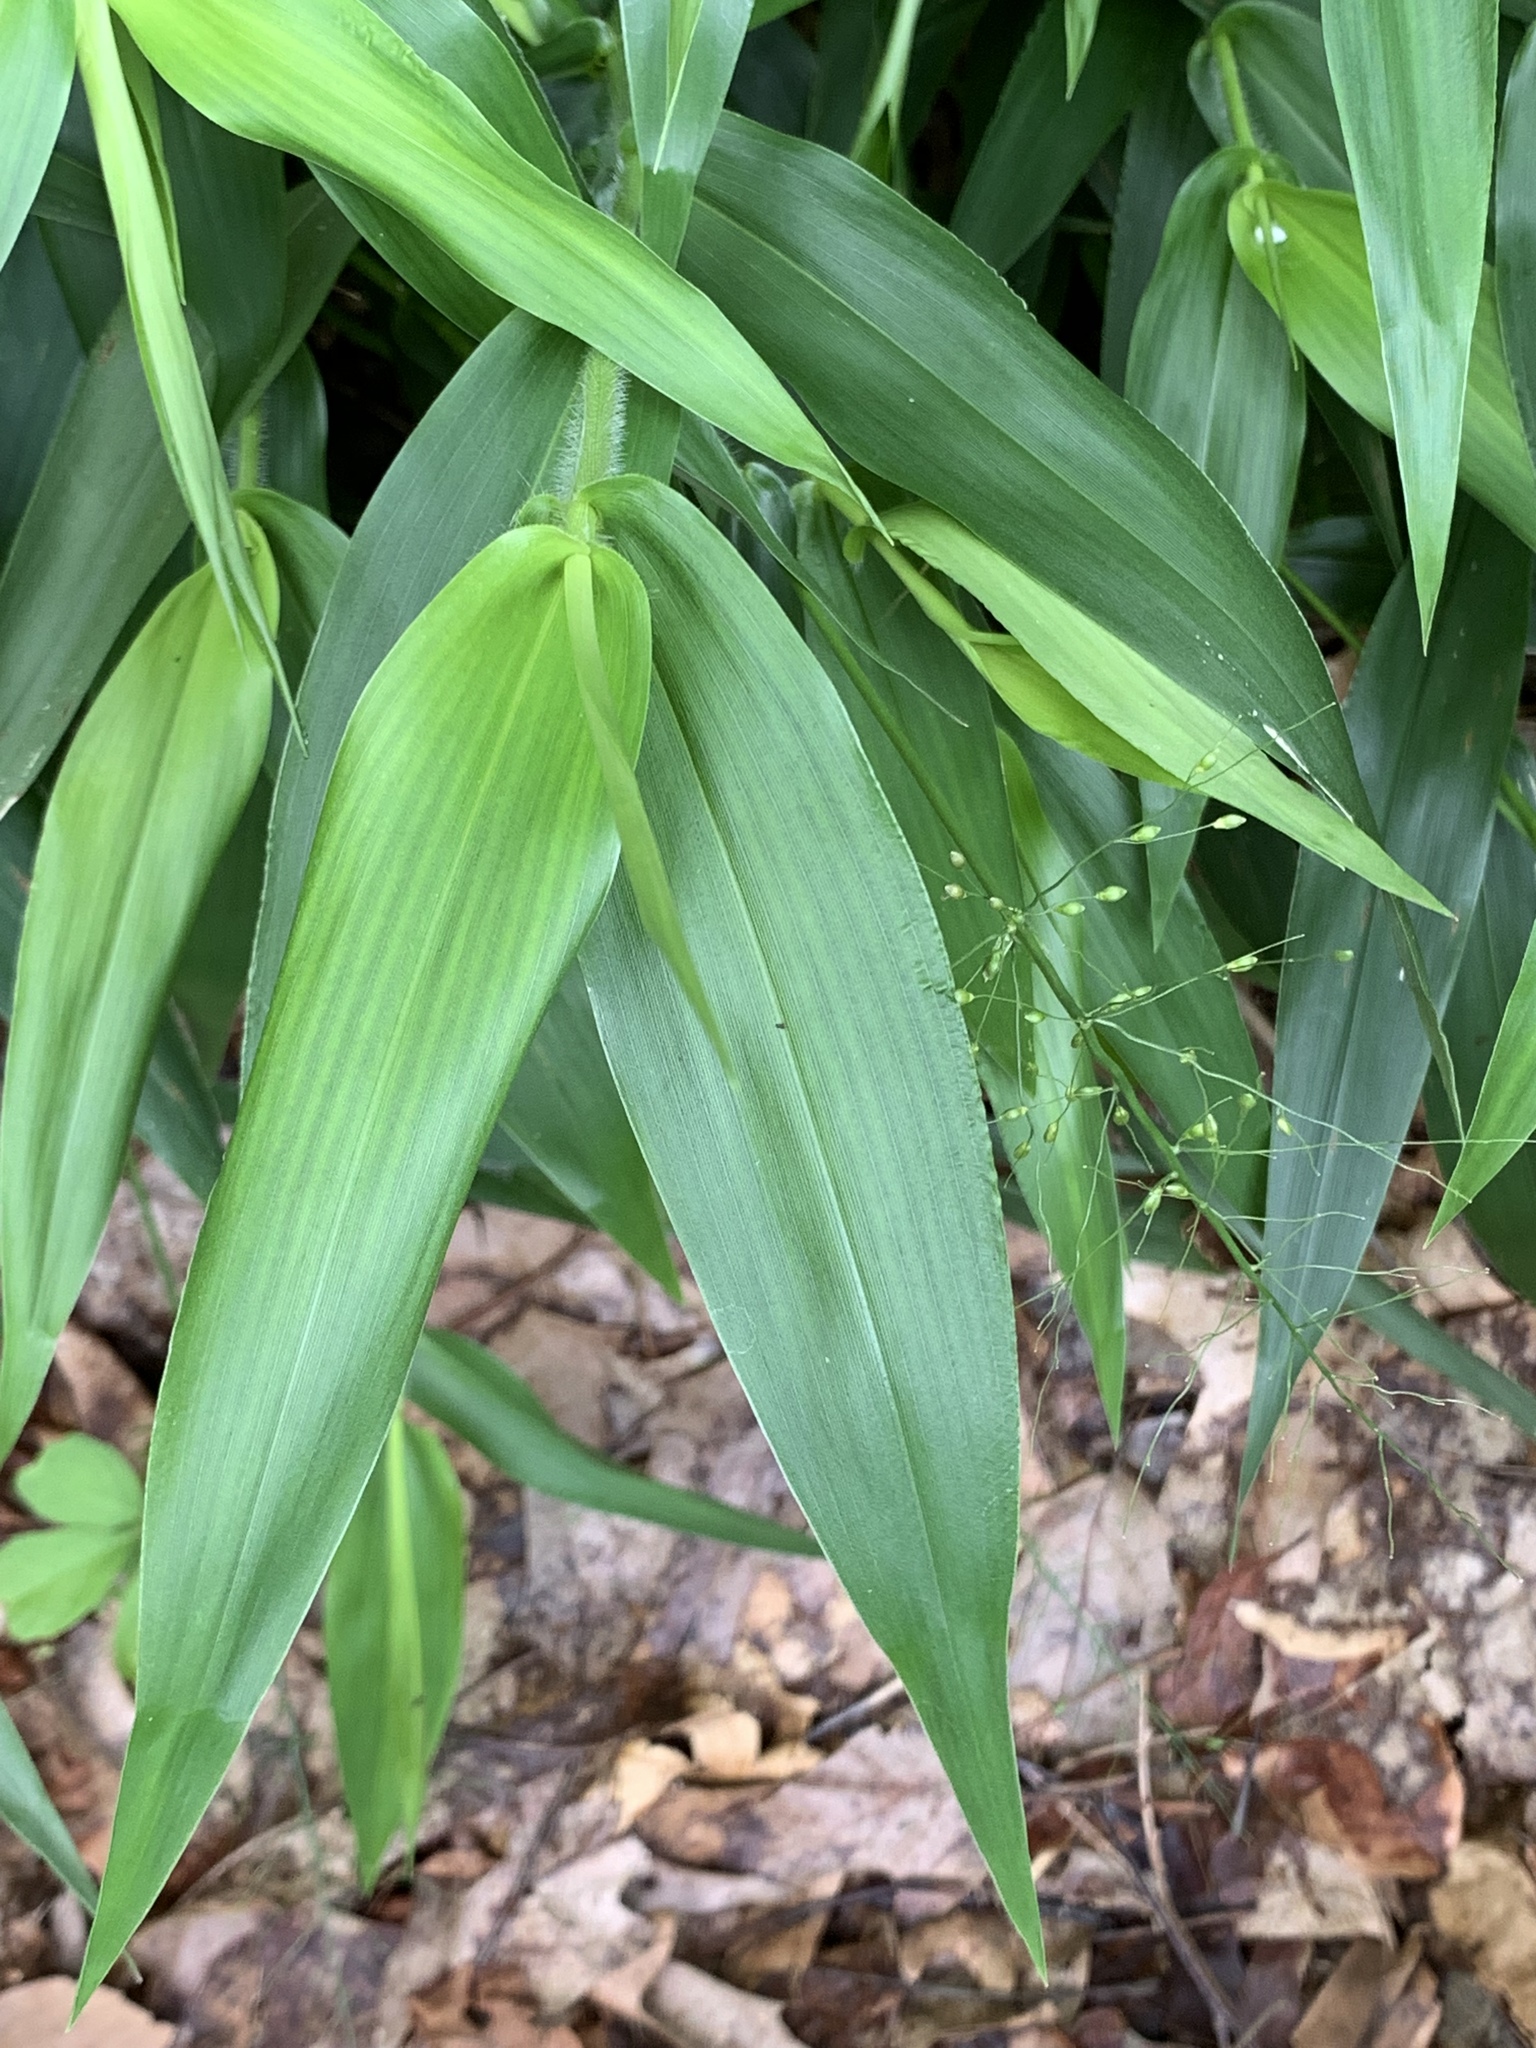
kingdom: Plantae
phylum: Tracheophyta
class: Liliopsida
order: Poales
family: Poaceae
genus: Dichanthelium
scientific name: Dichanthelium clandestinum
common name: Deer-tongue grass
